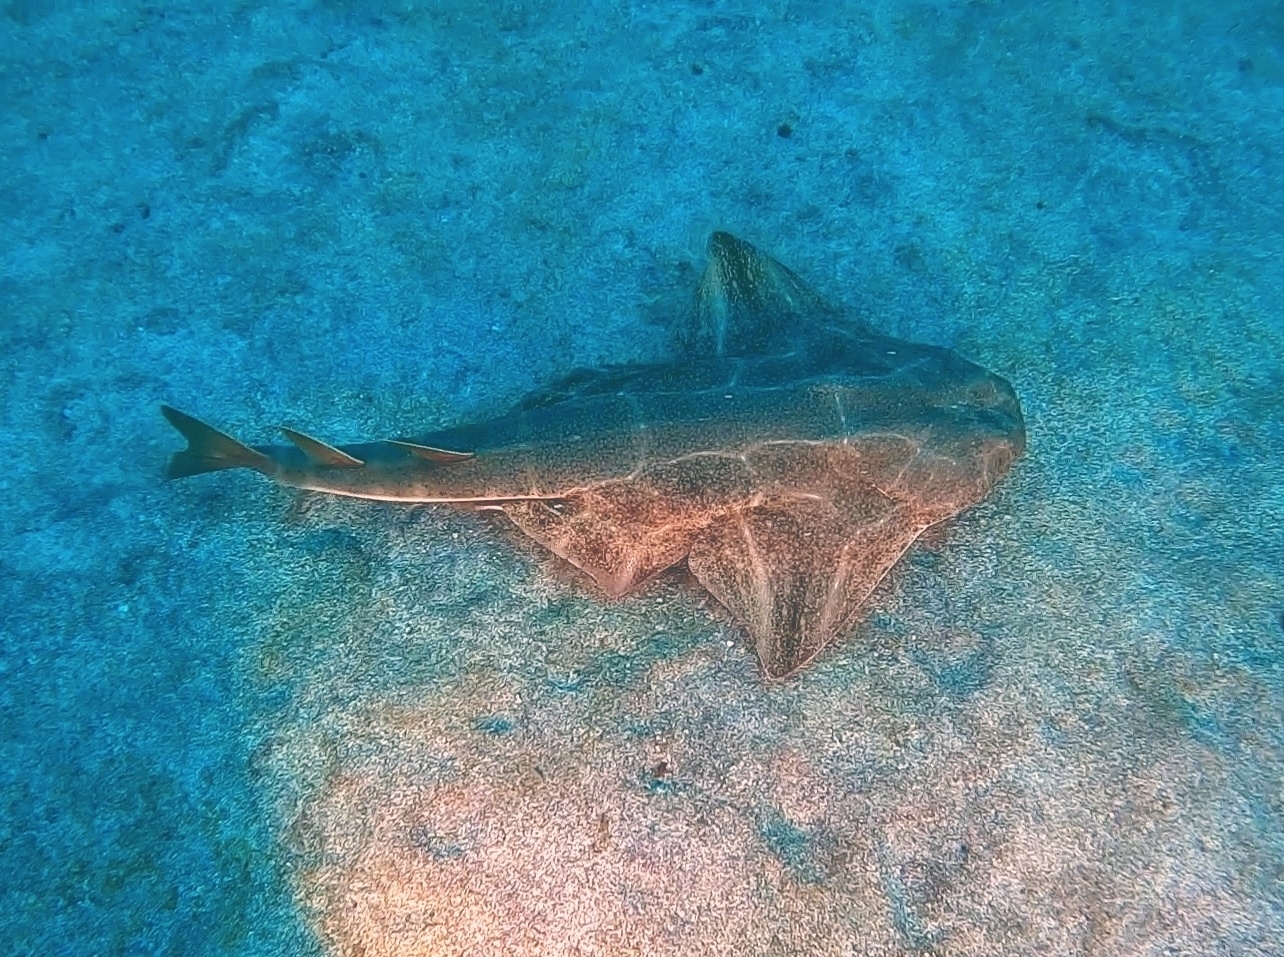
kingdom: Animalia
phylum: Chordata
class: Elasmobranchii
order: Squatiniformes
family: Squatinidae
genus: Squatina
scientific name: Squatina squatina
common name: Angel shark
